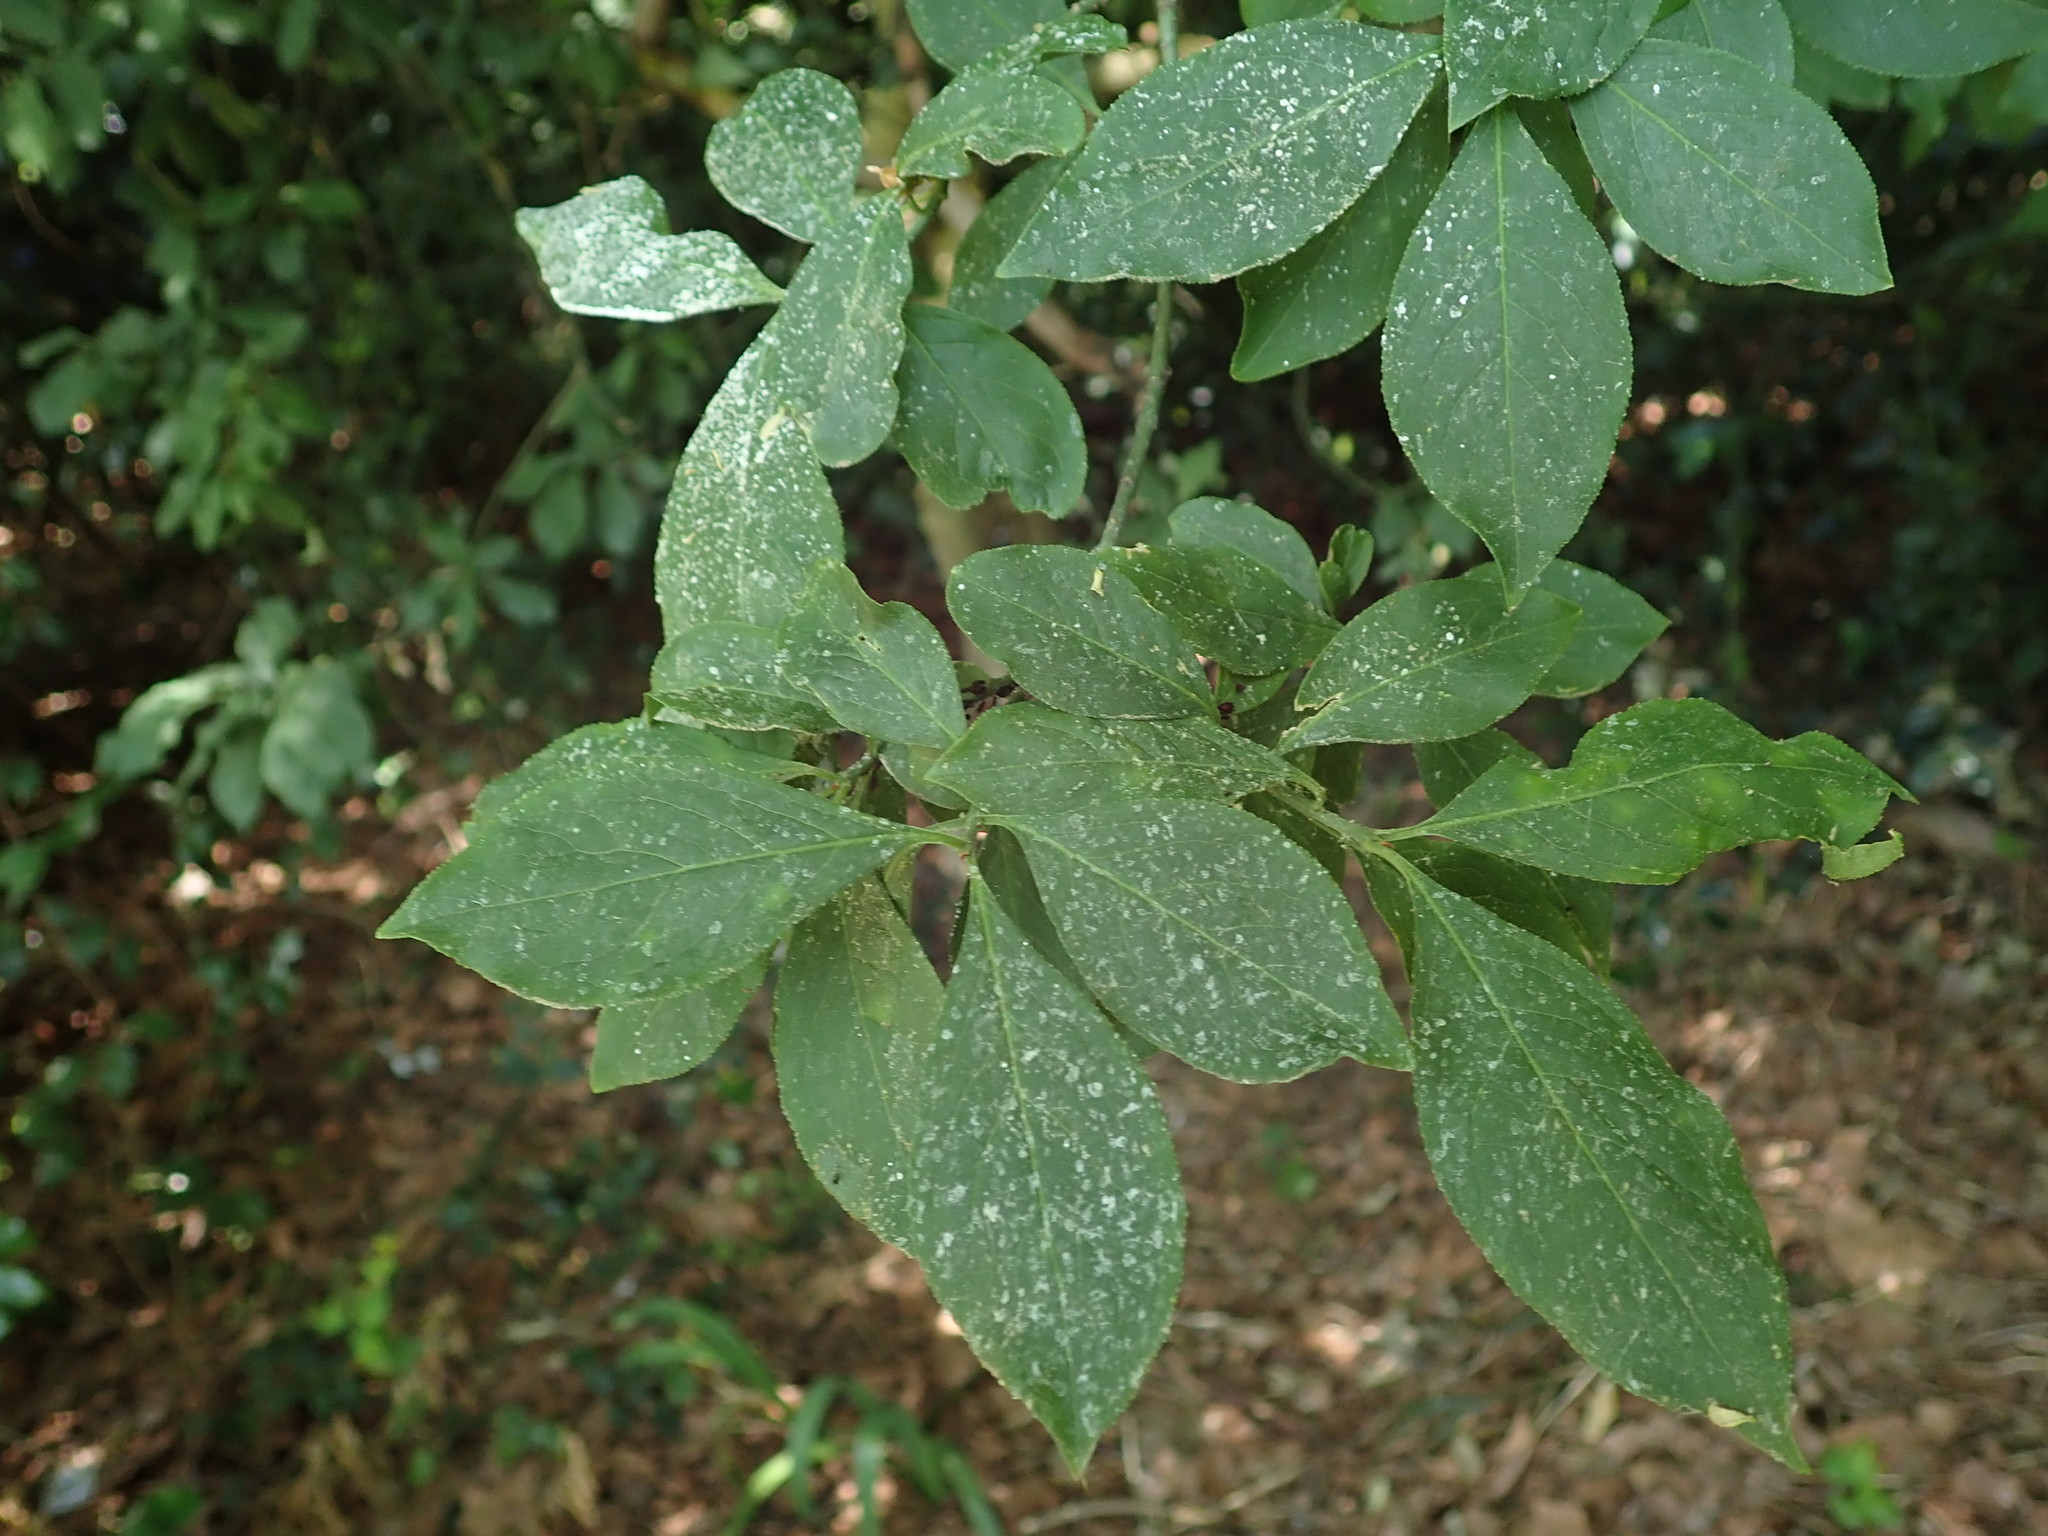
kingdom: Plantae
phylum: Tracheophyta
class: Magnoliopsida
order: Celastrales
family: Celastraceae
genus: Euonymus
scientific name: Euonymus europaeus
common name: Spindle
